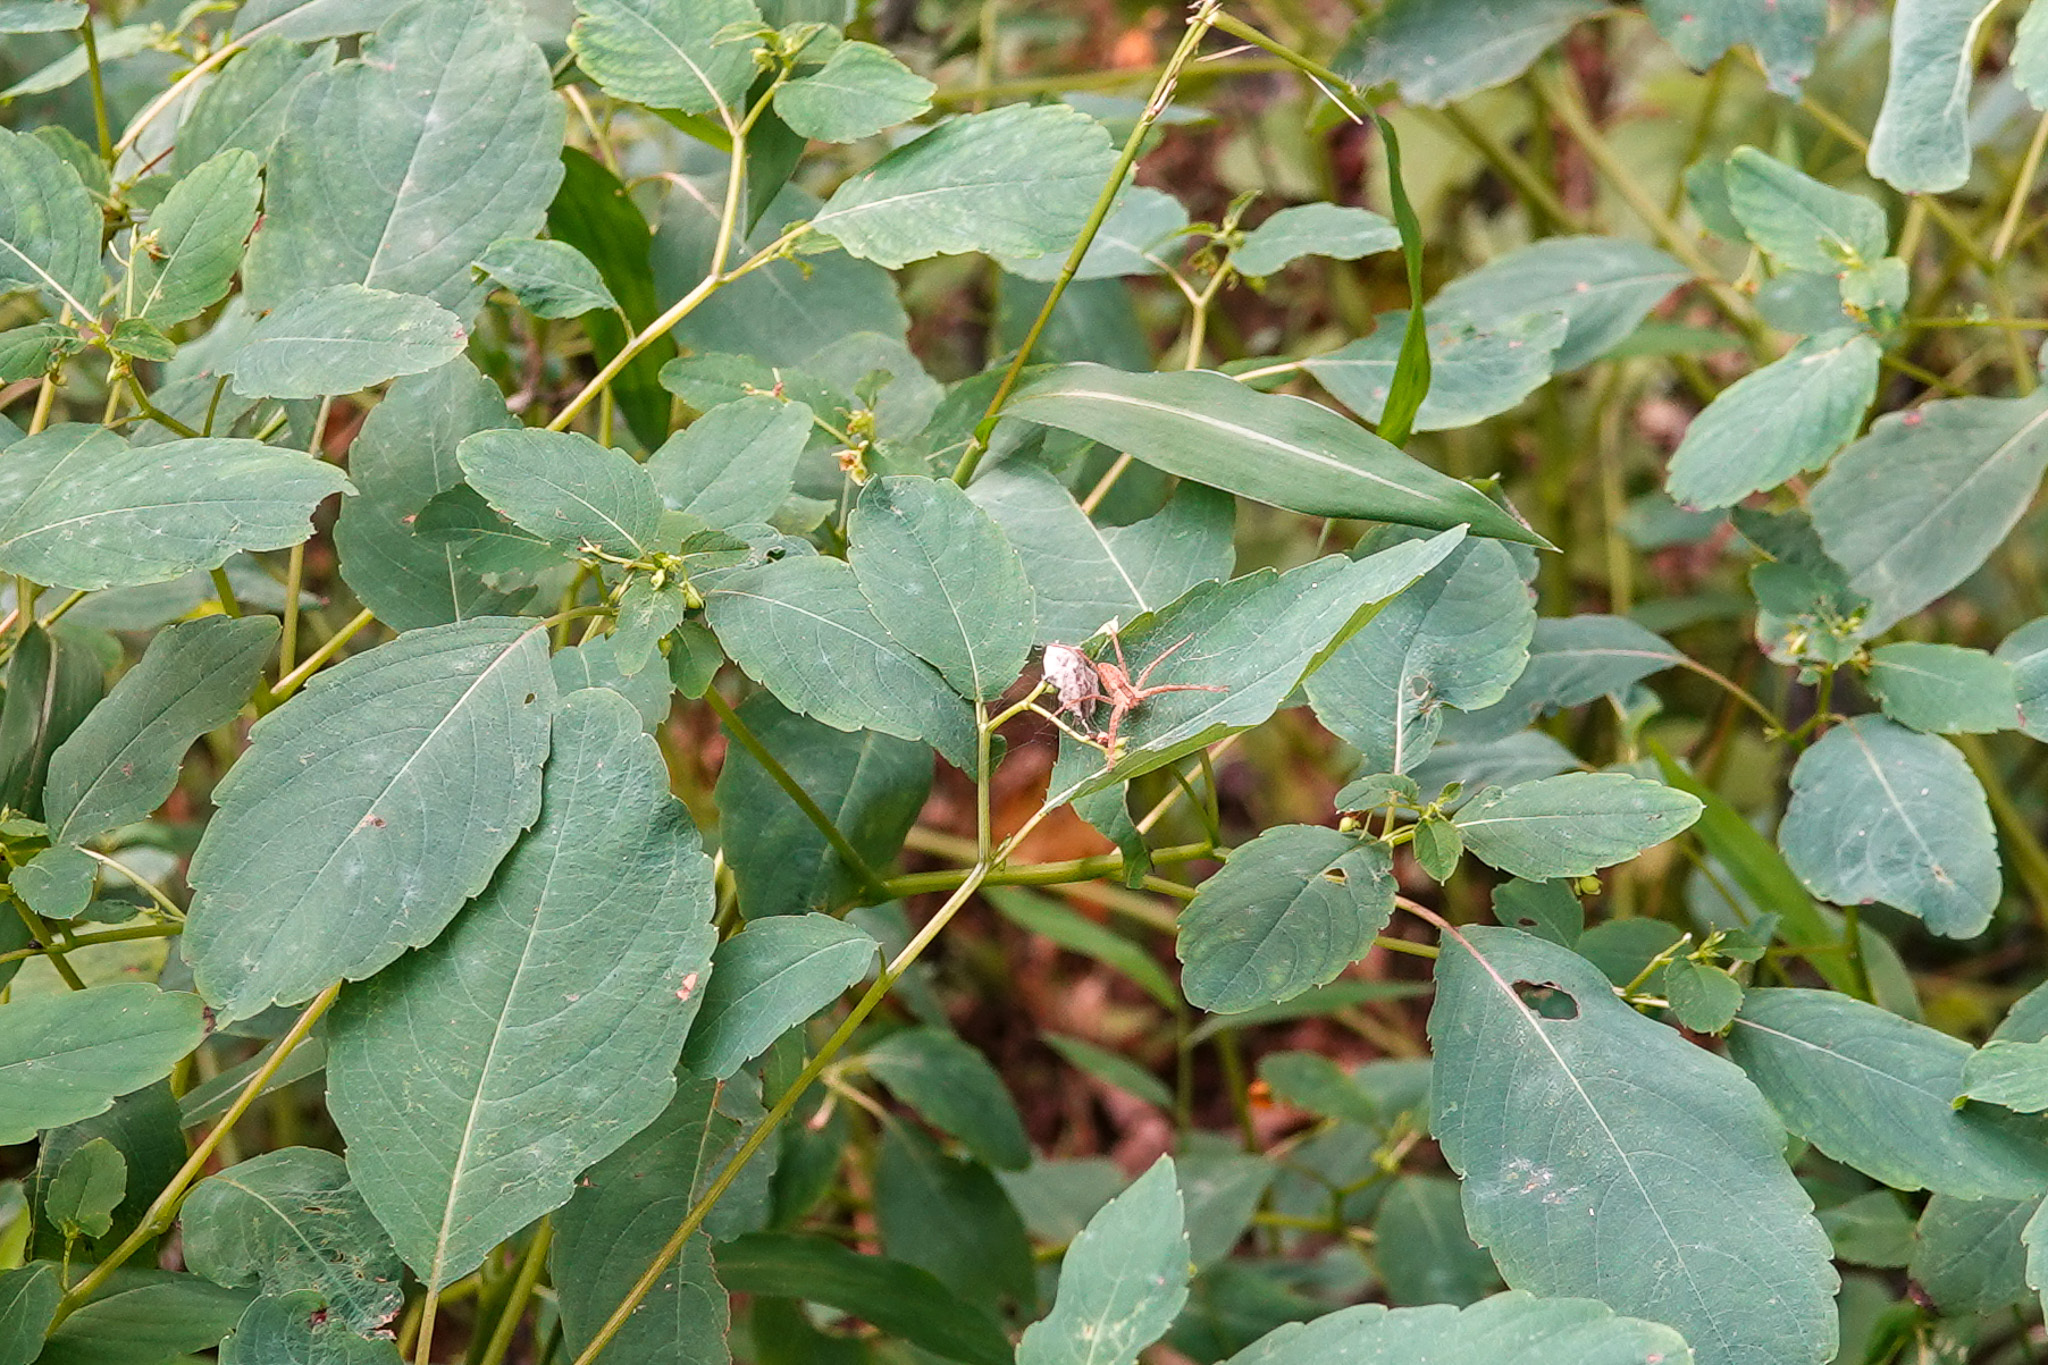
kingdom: Animalia
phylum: Arthropoda
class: Arachnida
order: Araneae
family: Pisauridae
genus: Pisaurina
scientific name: Pisaurina mira
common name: American nursery web spider
